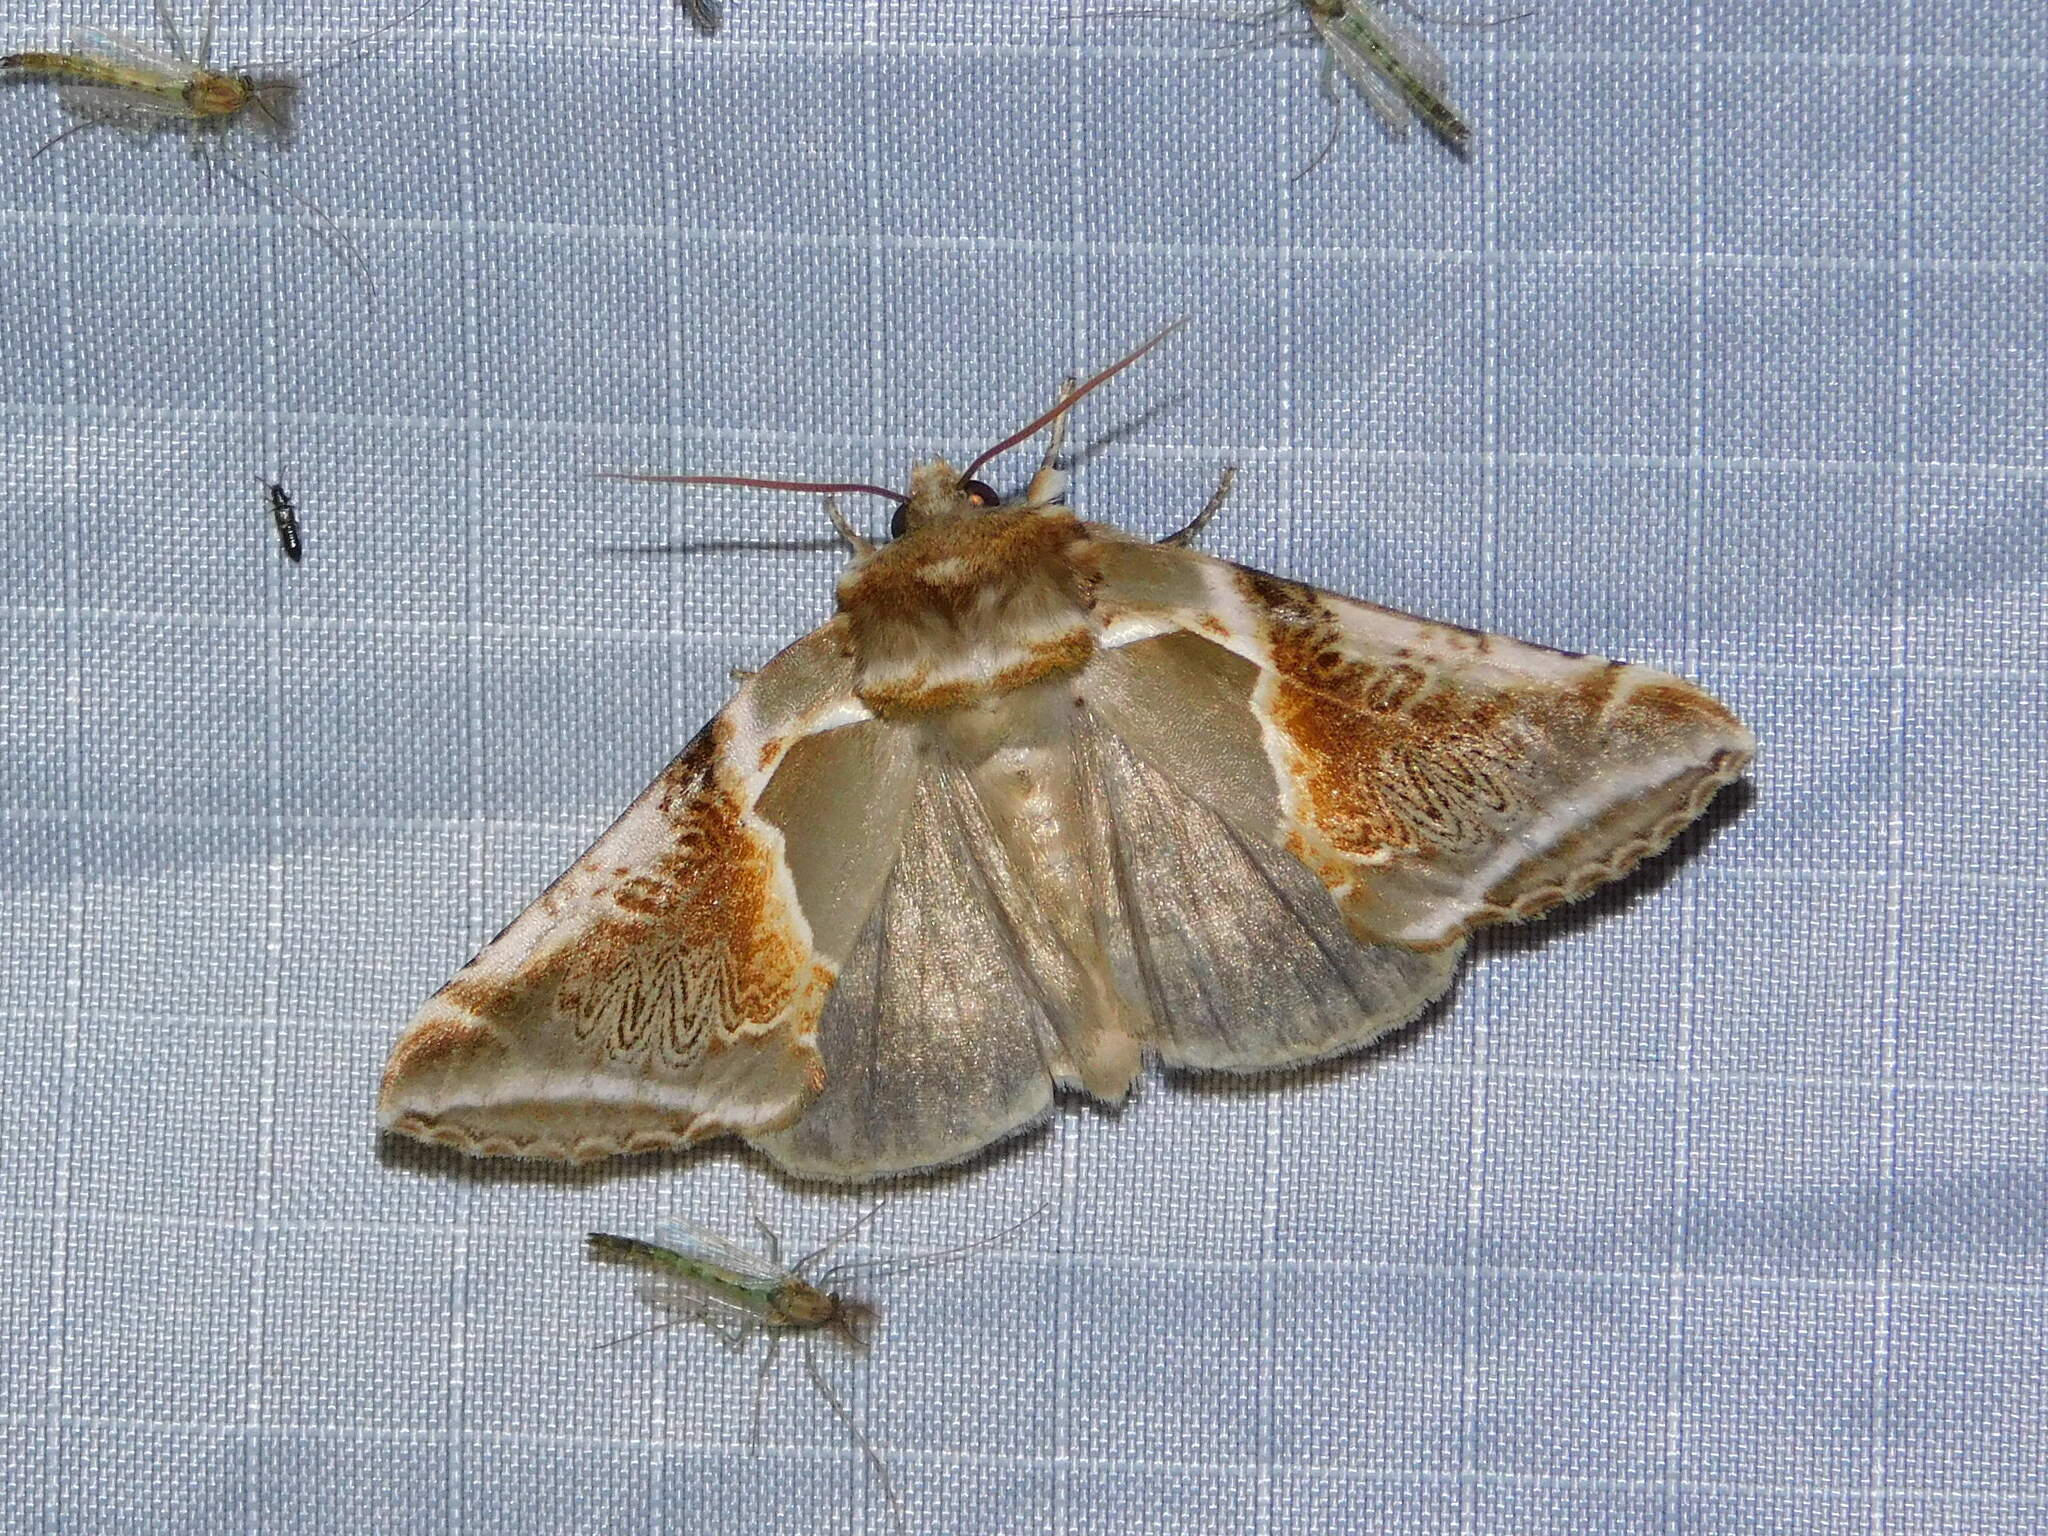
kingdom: Animalia
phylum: Arthropoda
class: Insecta
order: Lepidoptera
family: Drepanidae
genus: Habrosyne
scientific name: Habrosyne pyritoides
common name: Buff arches
